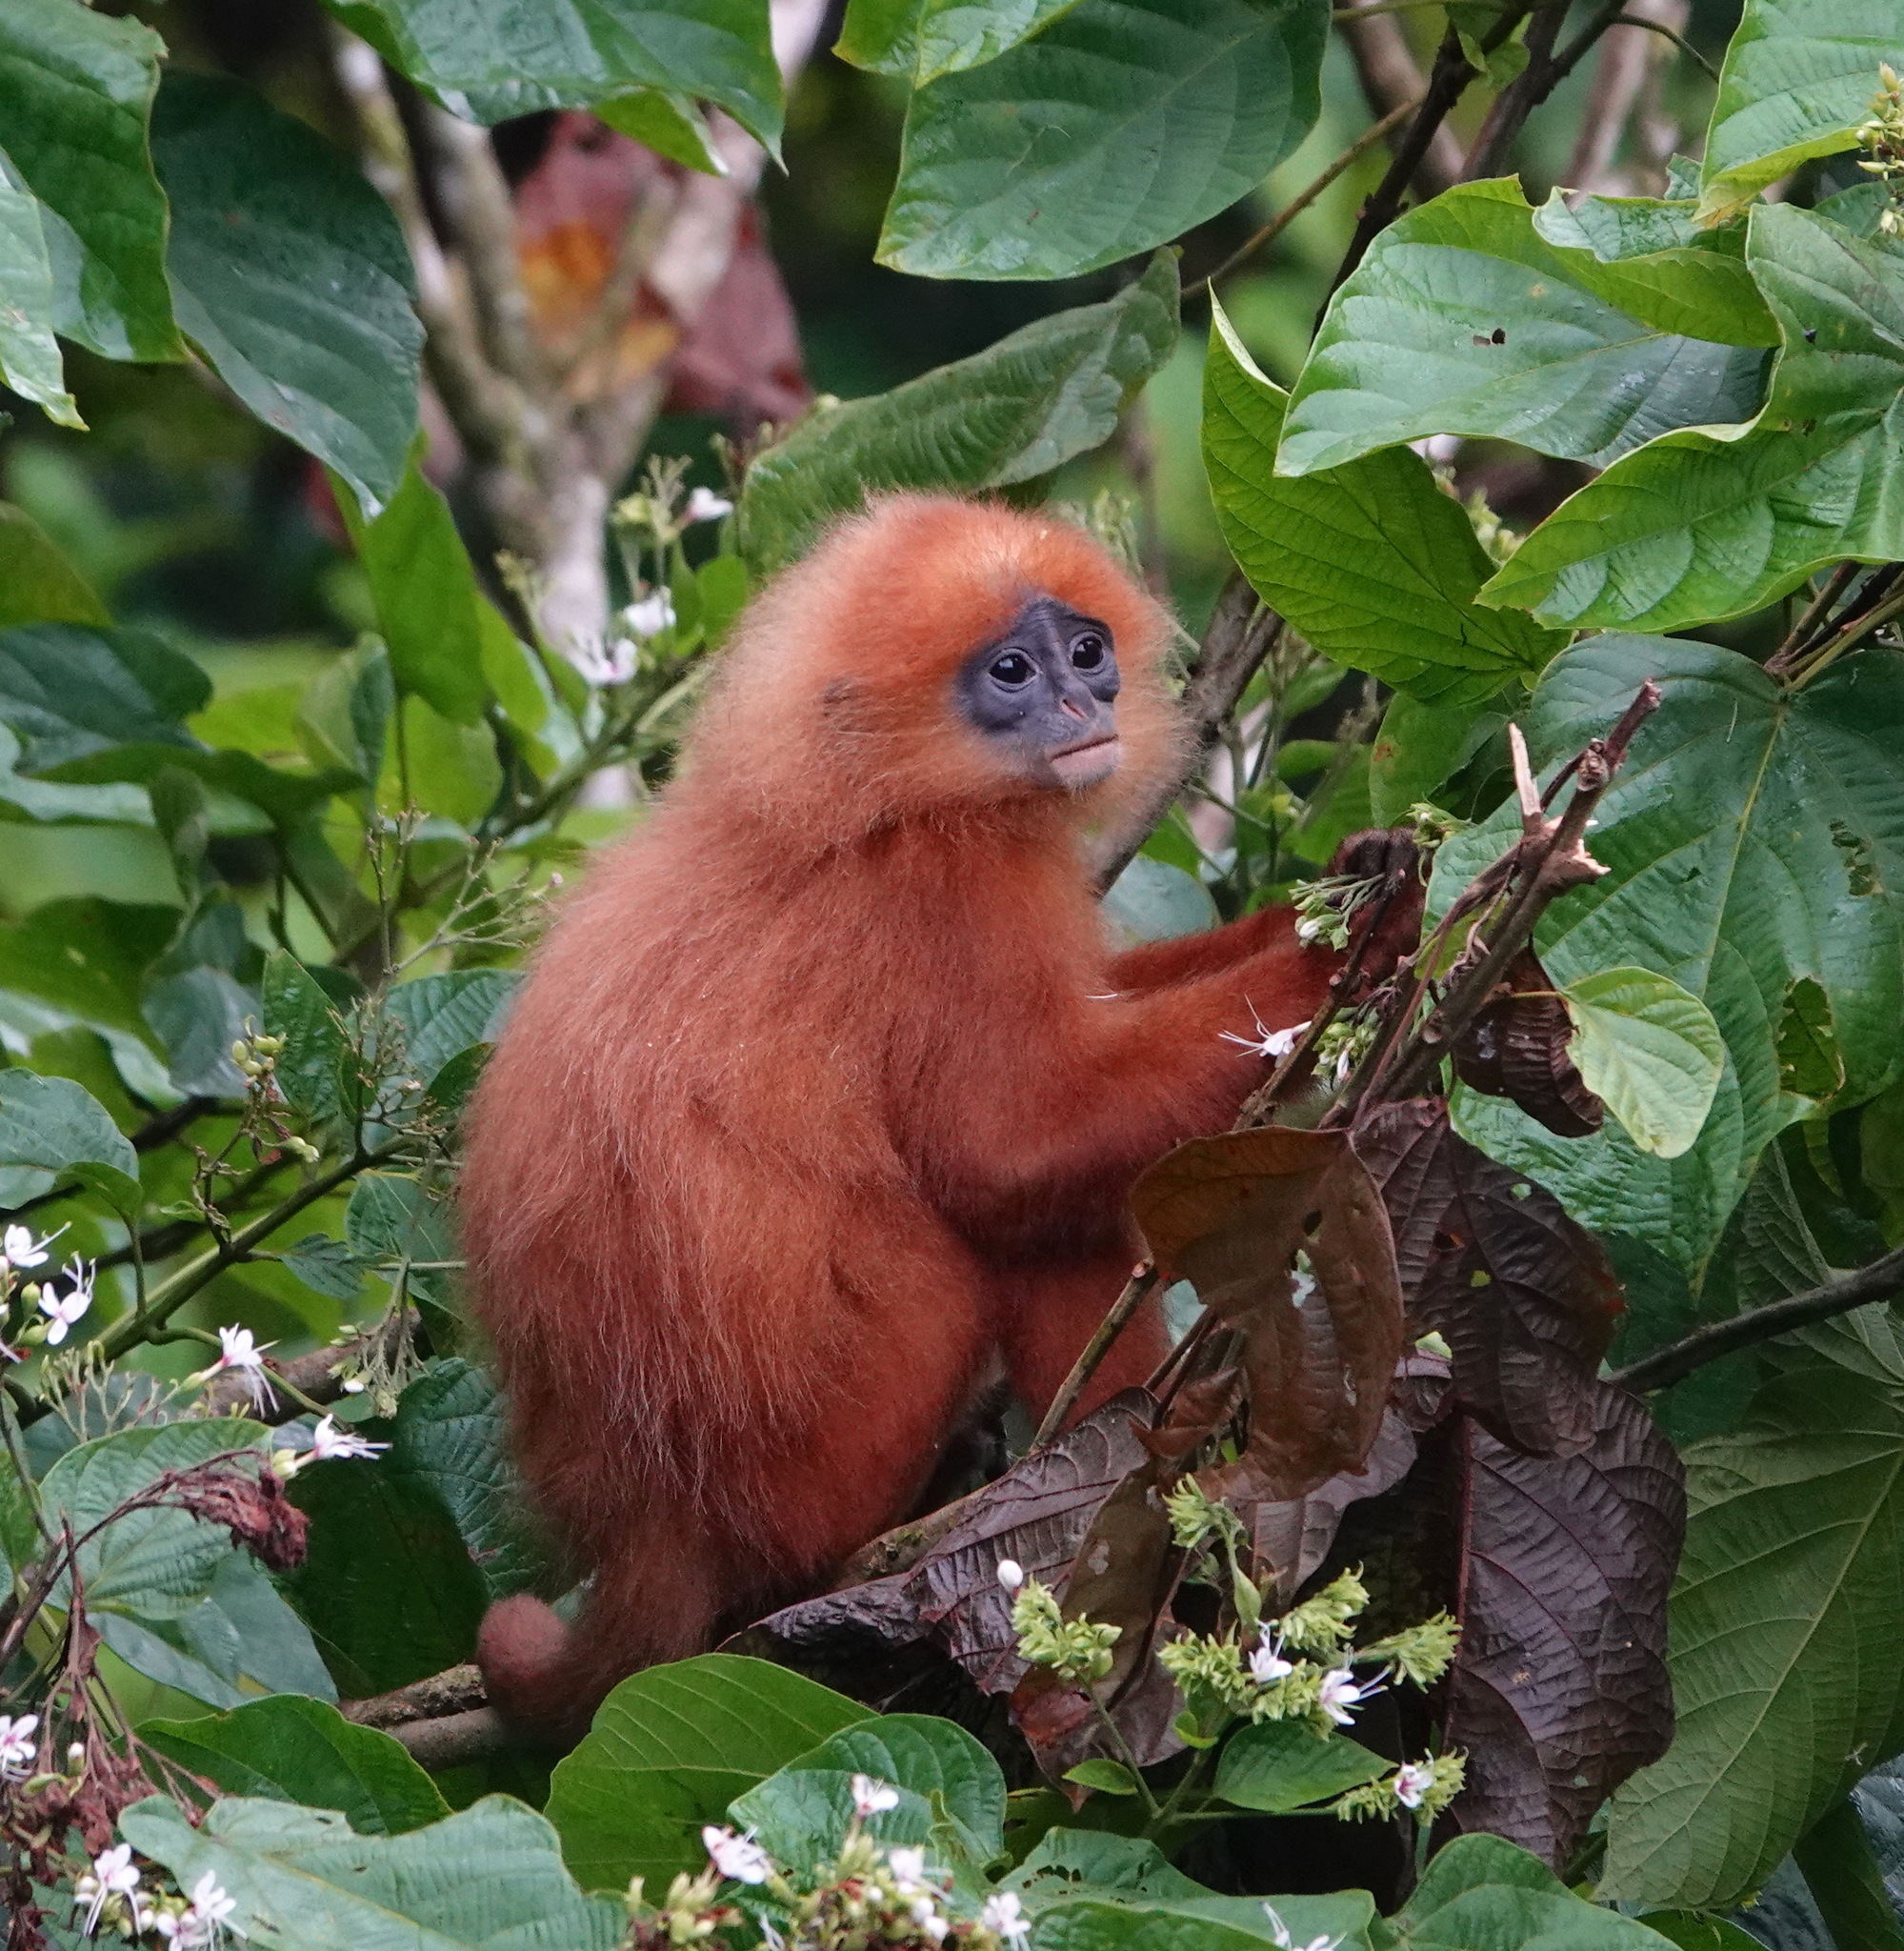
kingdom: Animalia
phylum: Chordata
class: Mammalia
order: Primates
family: Cercopithecidae
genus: Presbytis
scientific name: Presbytis rubicunda
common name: Maroon leaf monkey
